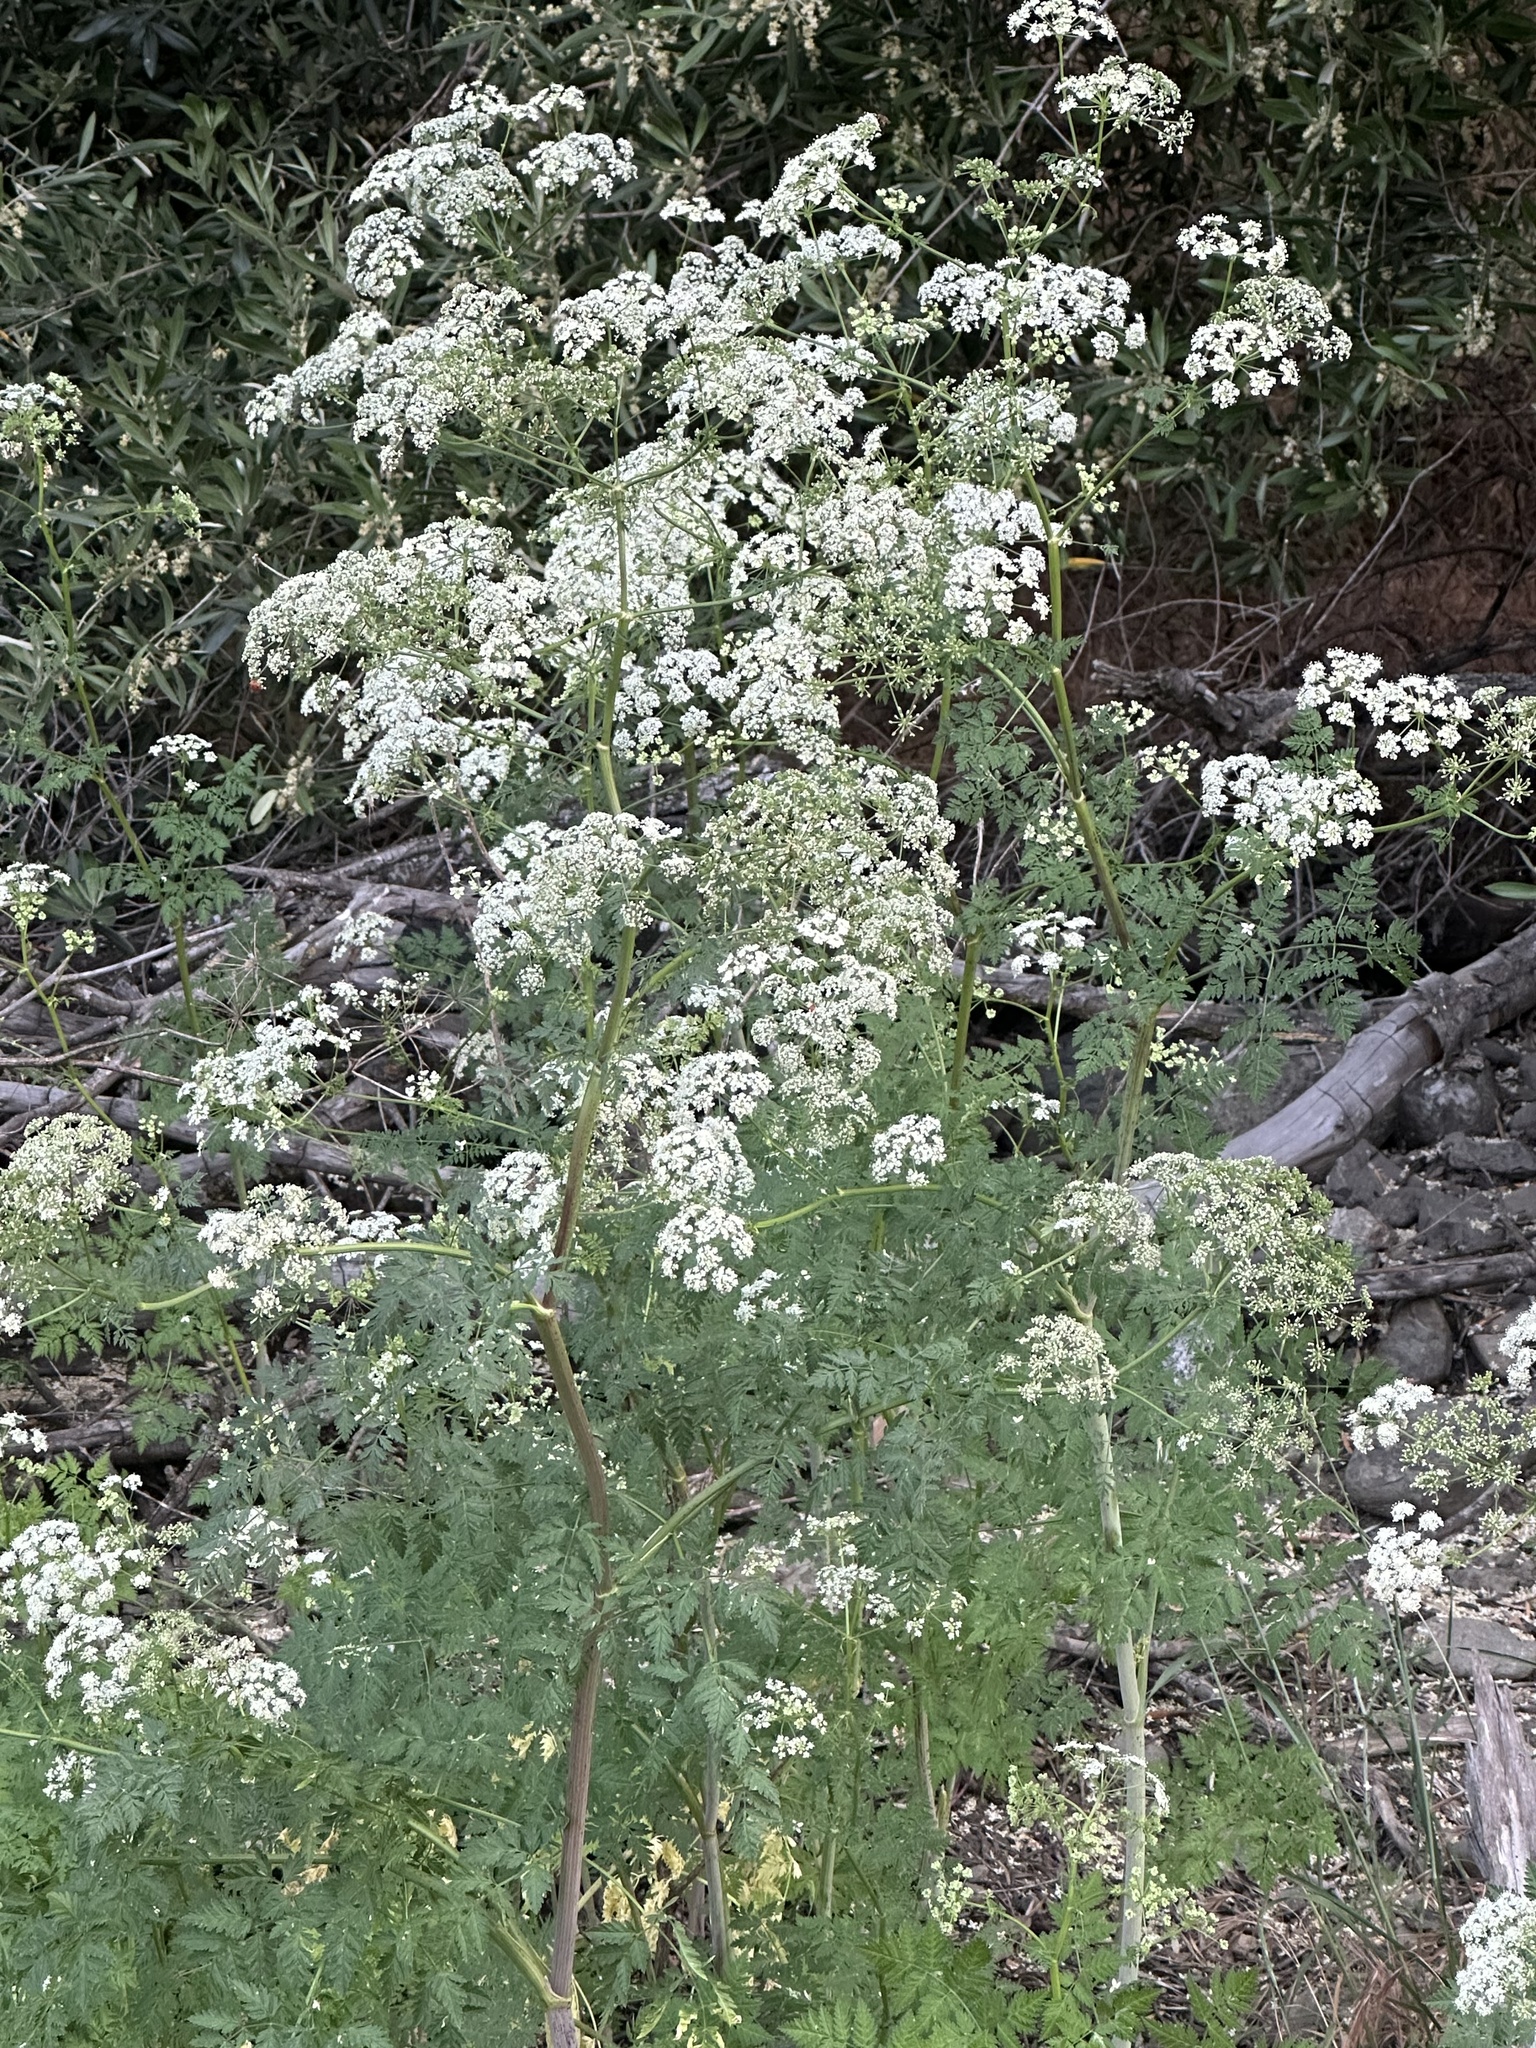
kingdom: Plantae
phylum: Tracheophyta
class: Magnoliopsida
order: Apiales
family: Apiaceae
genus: Conium
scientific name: Conium maculatum
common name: Hemlock
